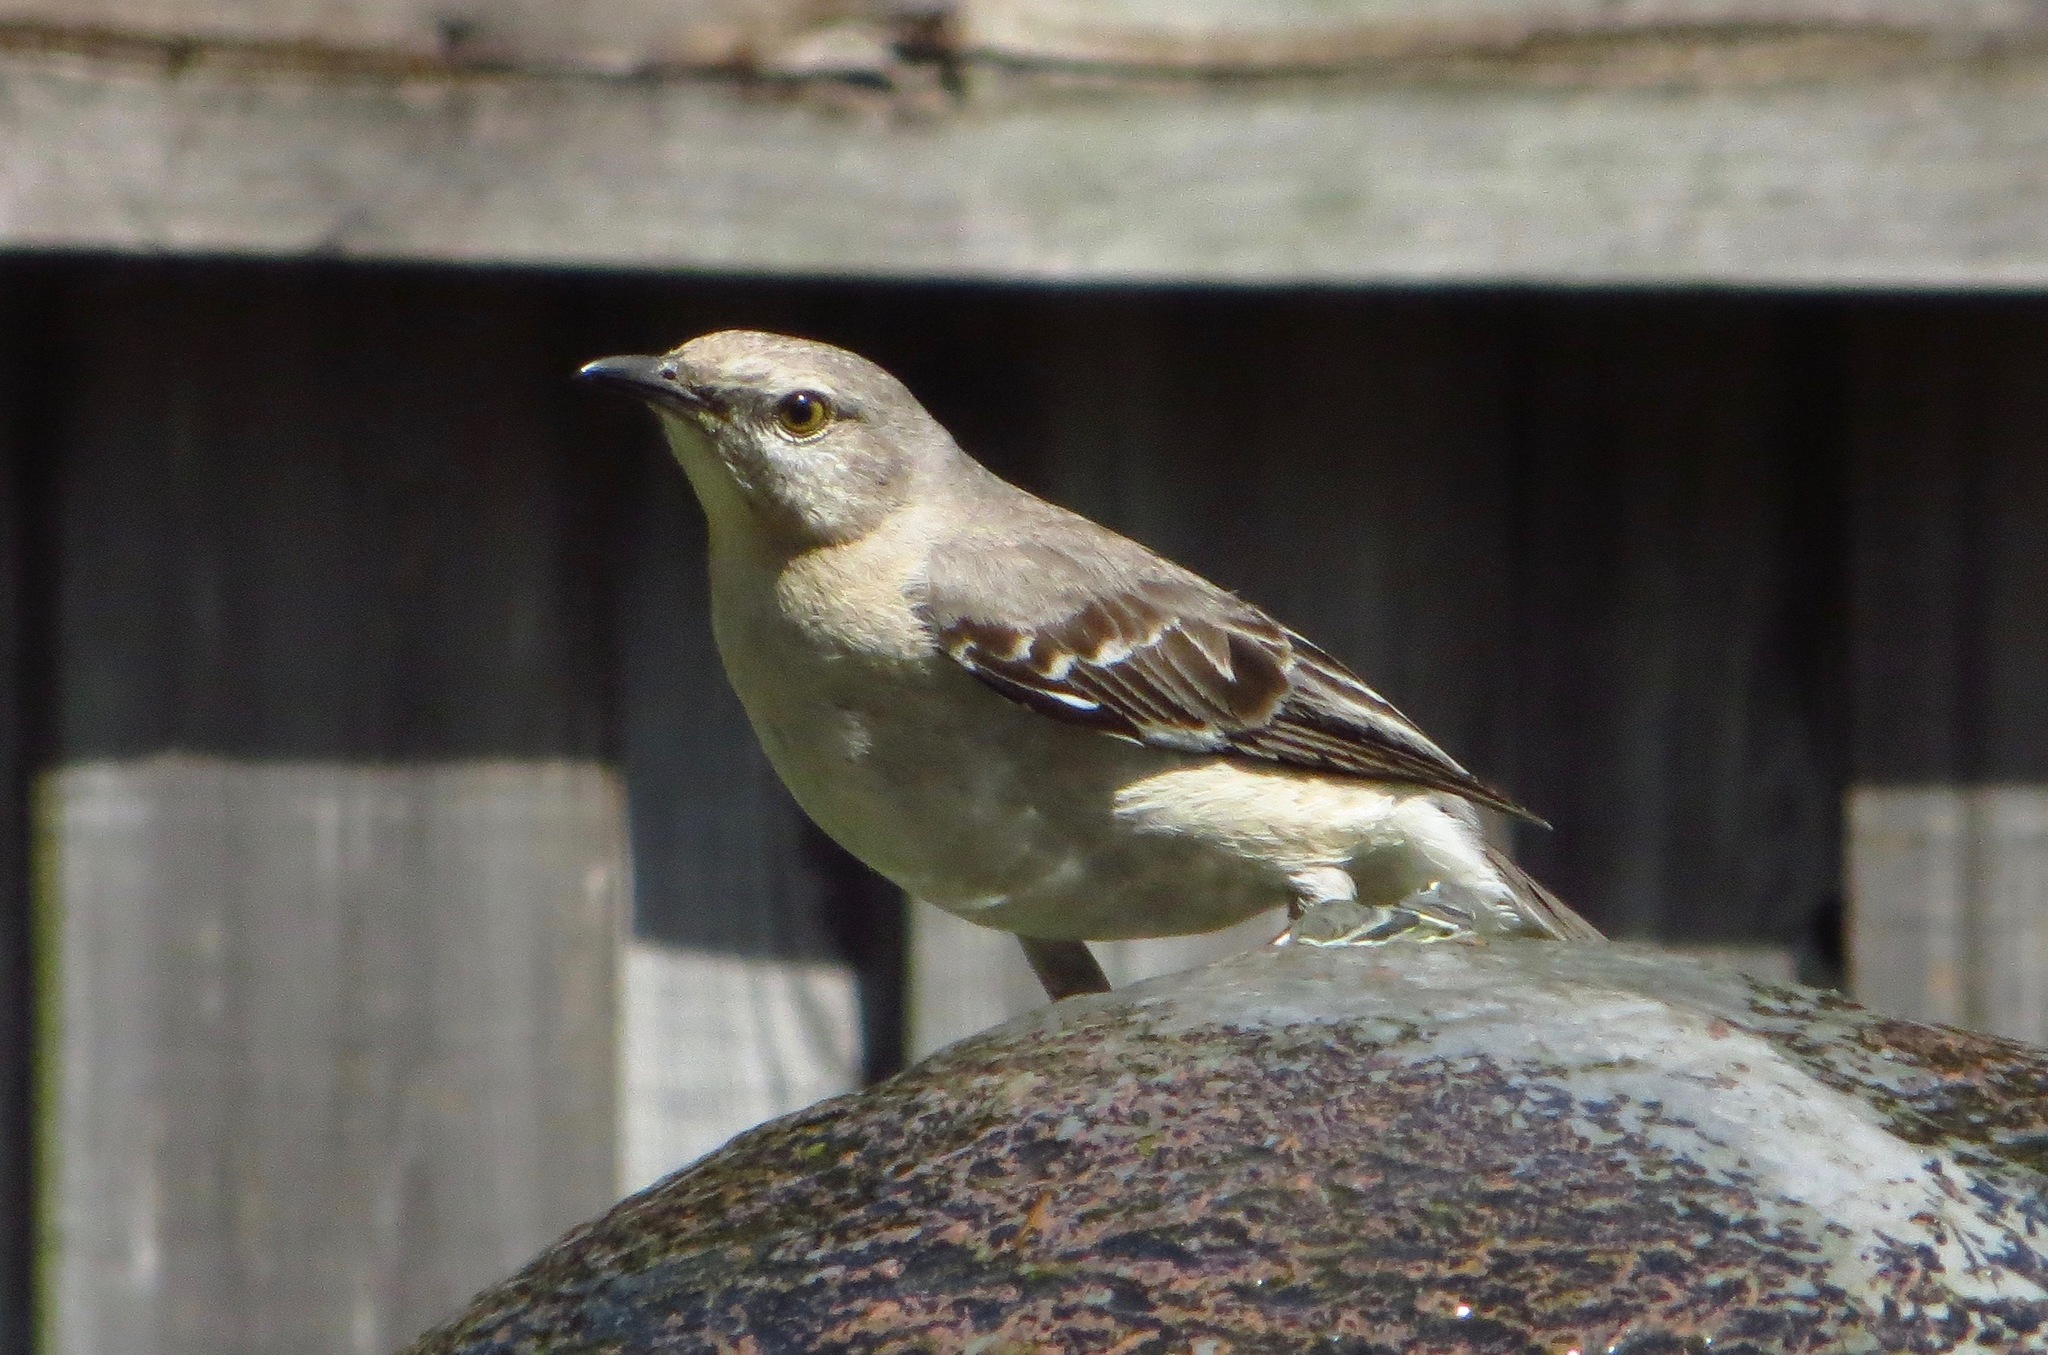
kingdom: Animalia
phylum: Chordata
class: Aves
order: Passeriformes
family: Mimidae
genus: Mimus
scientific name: Mimus polyglottos
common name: Northern mockingbird
